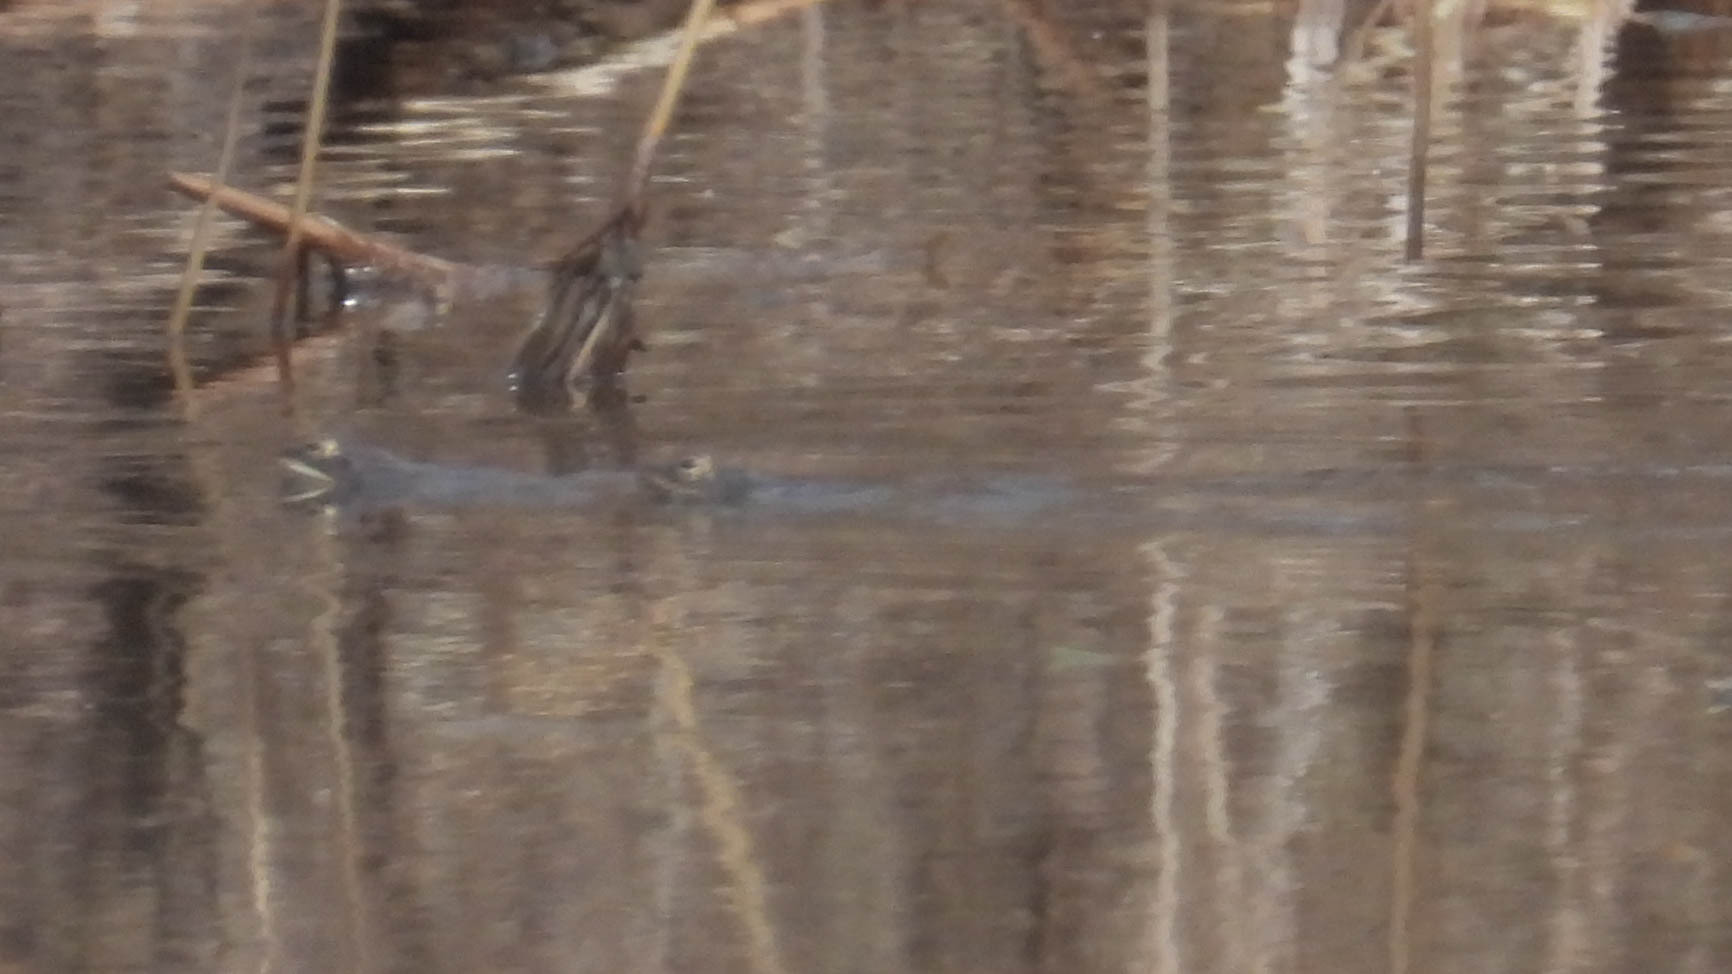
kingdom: Animalia
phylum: Chordata
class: Amphibia
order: Anura
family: Ranidae
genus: Lithobates
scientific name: Lithobates sylvaticus
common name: Wood frog
